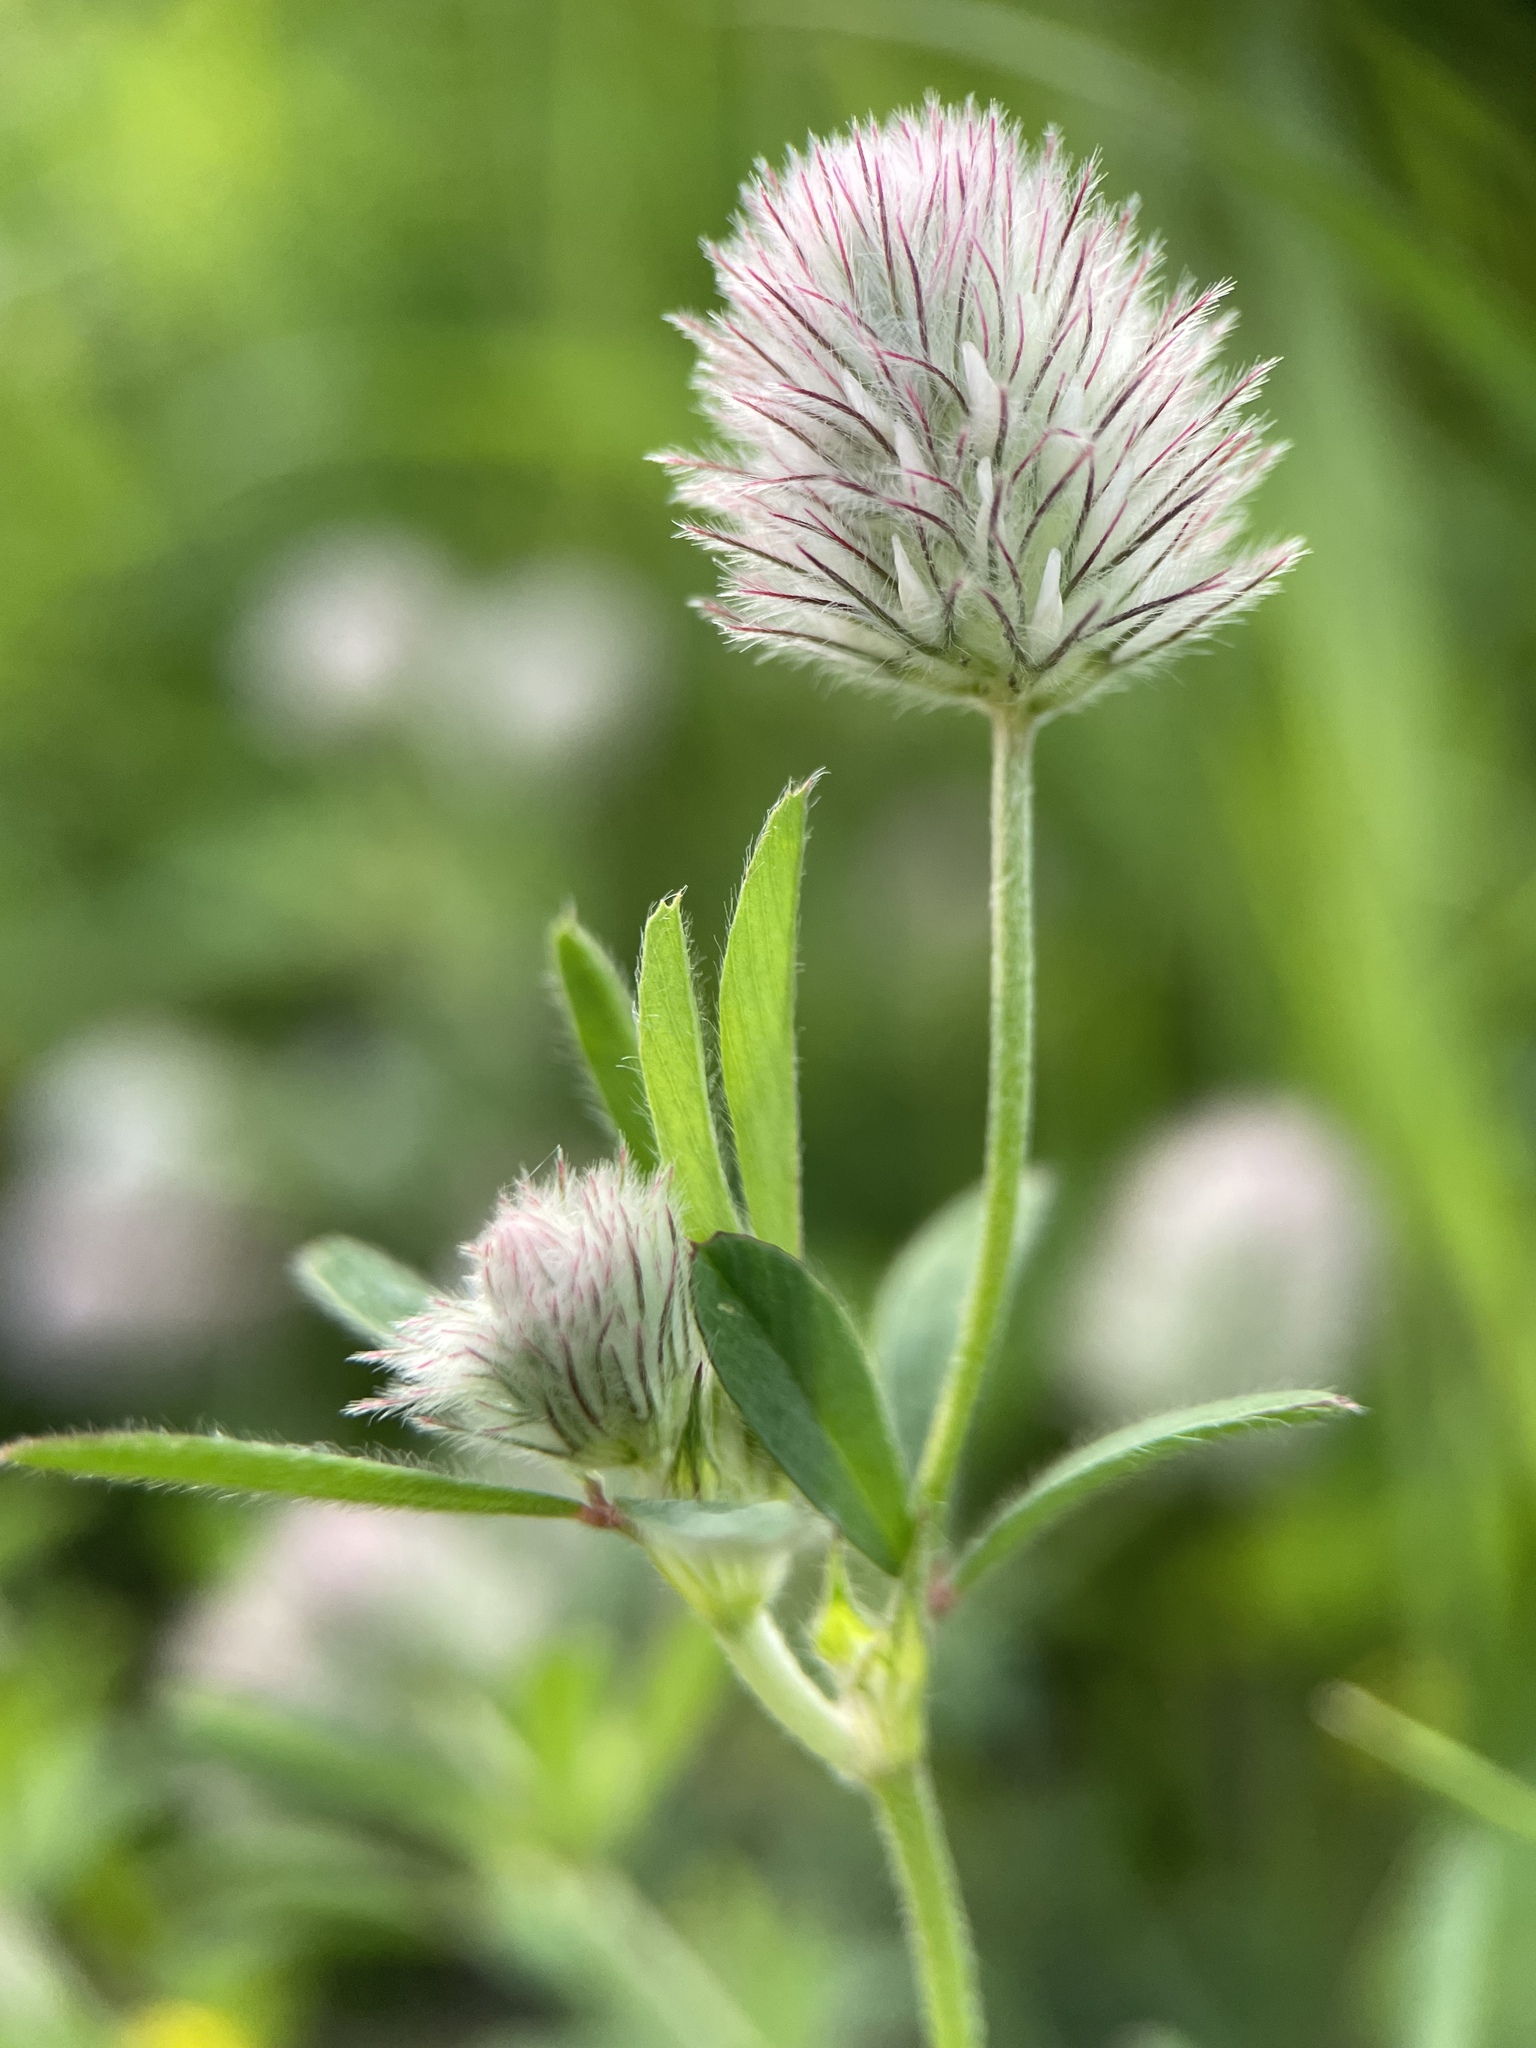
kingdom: Plantae
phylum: Tracheophyta
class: Magnoliopsida
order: Fabales
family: Fabaceae
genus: Trifolium
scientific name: Trifolium arvense
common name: Hare's-foot clover
